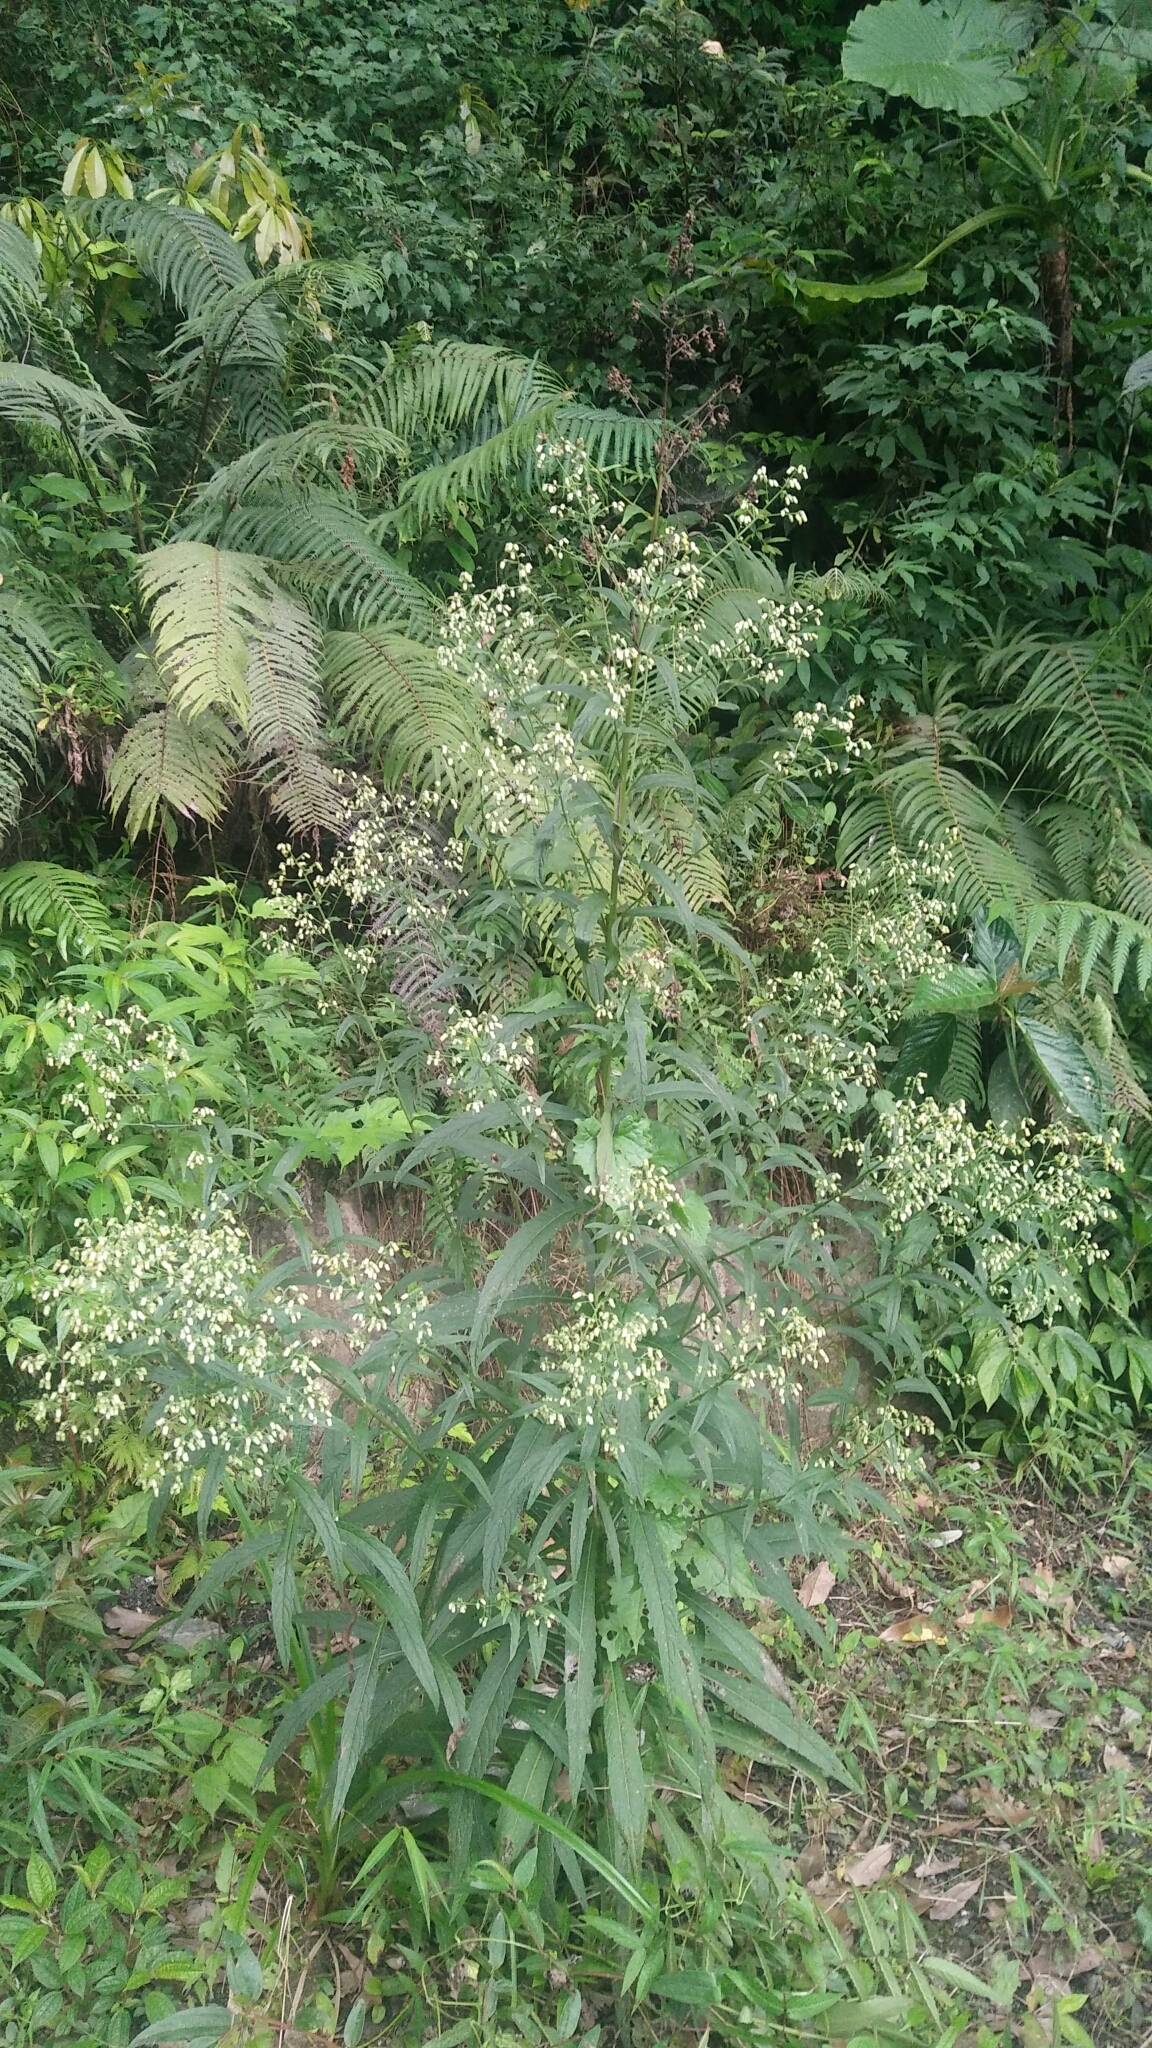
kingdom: Plantae
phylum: Tracheophyta
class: Magnoliopsida
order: Asterales
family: Asteraceae
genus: Blumea
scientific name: Blumea linearis
